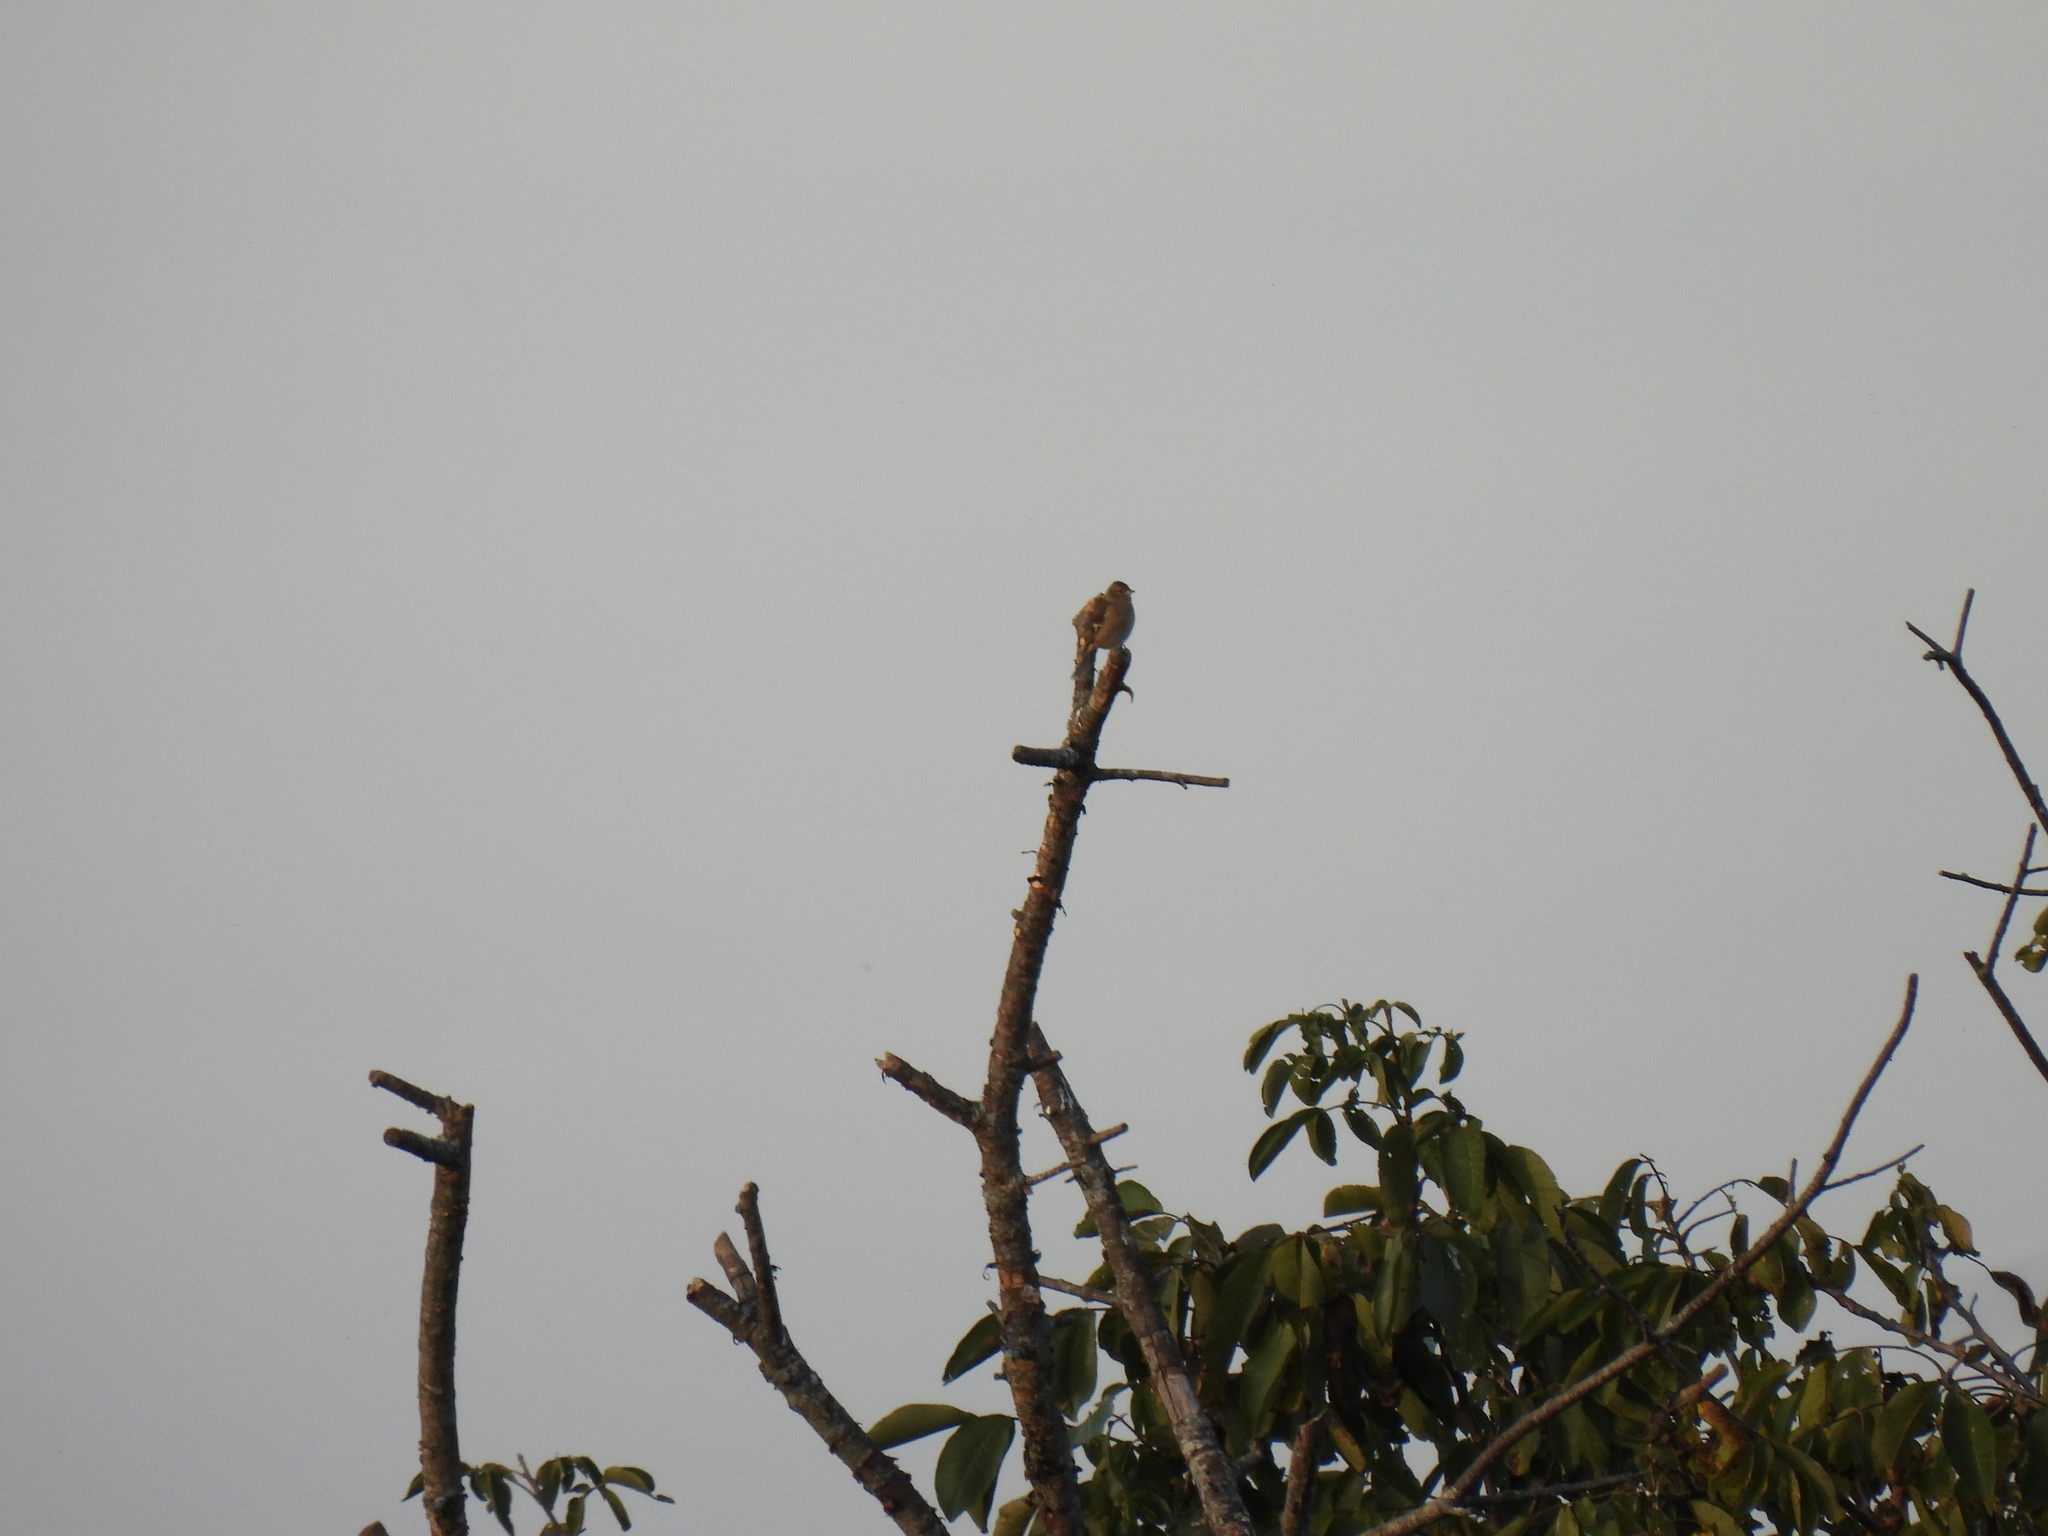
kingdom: Animalia
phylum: Chordata
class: Aves
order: Passeriformes
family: Fringillidae
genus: Fringilla
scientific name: Fringilla coelebs
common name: Common chaffinch
